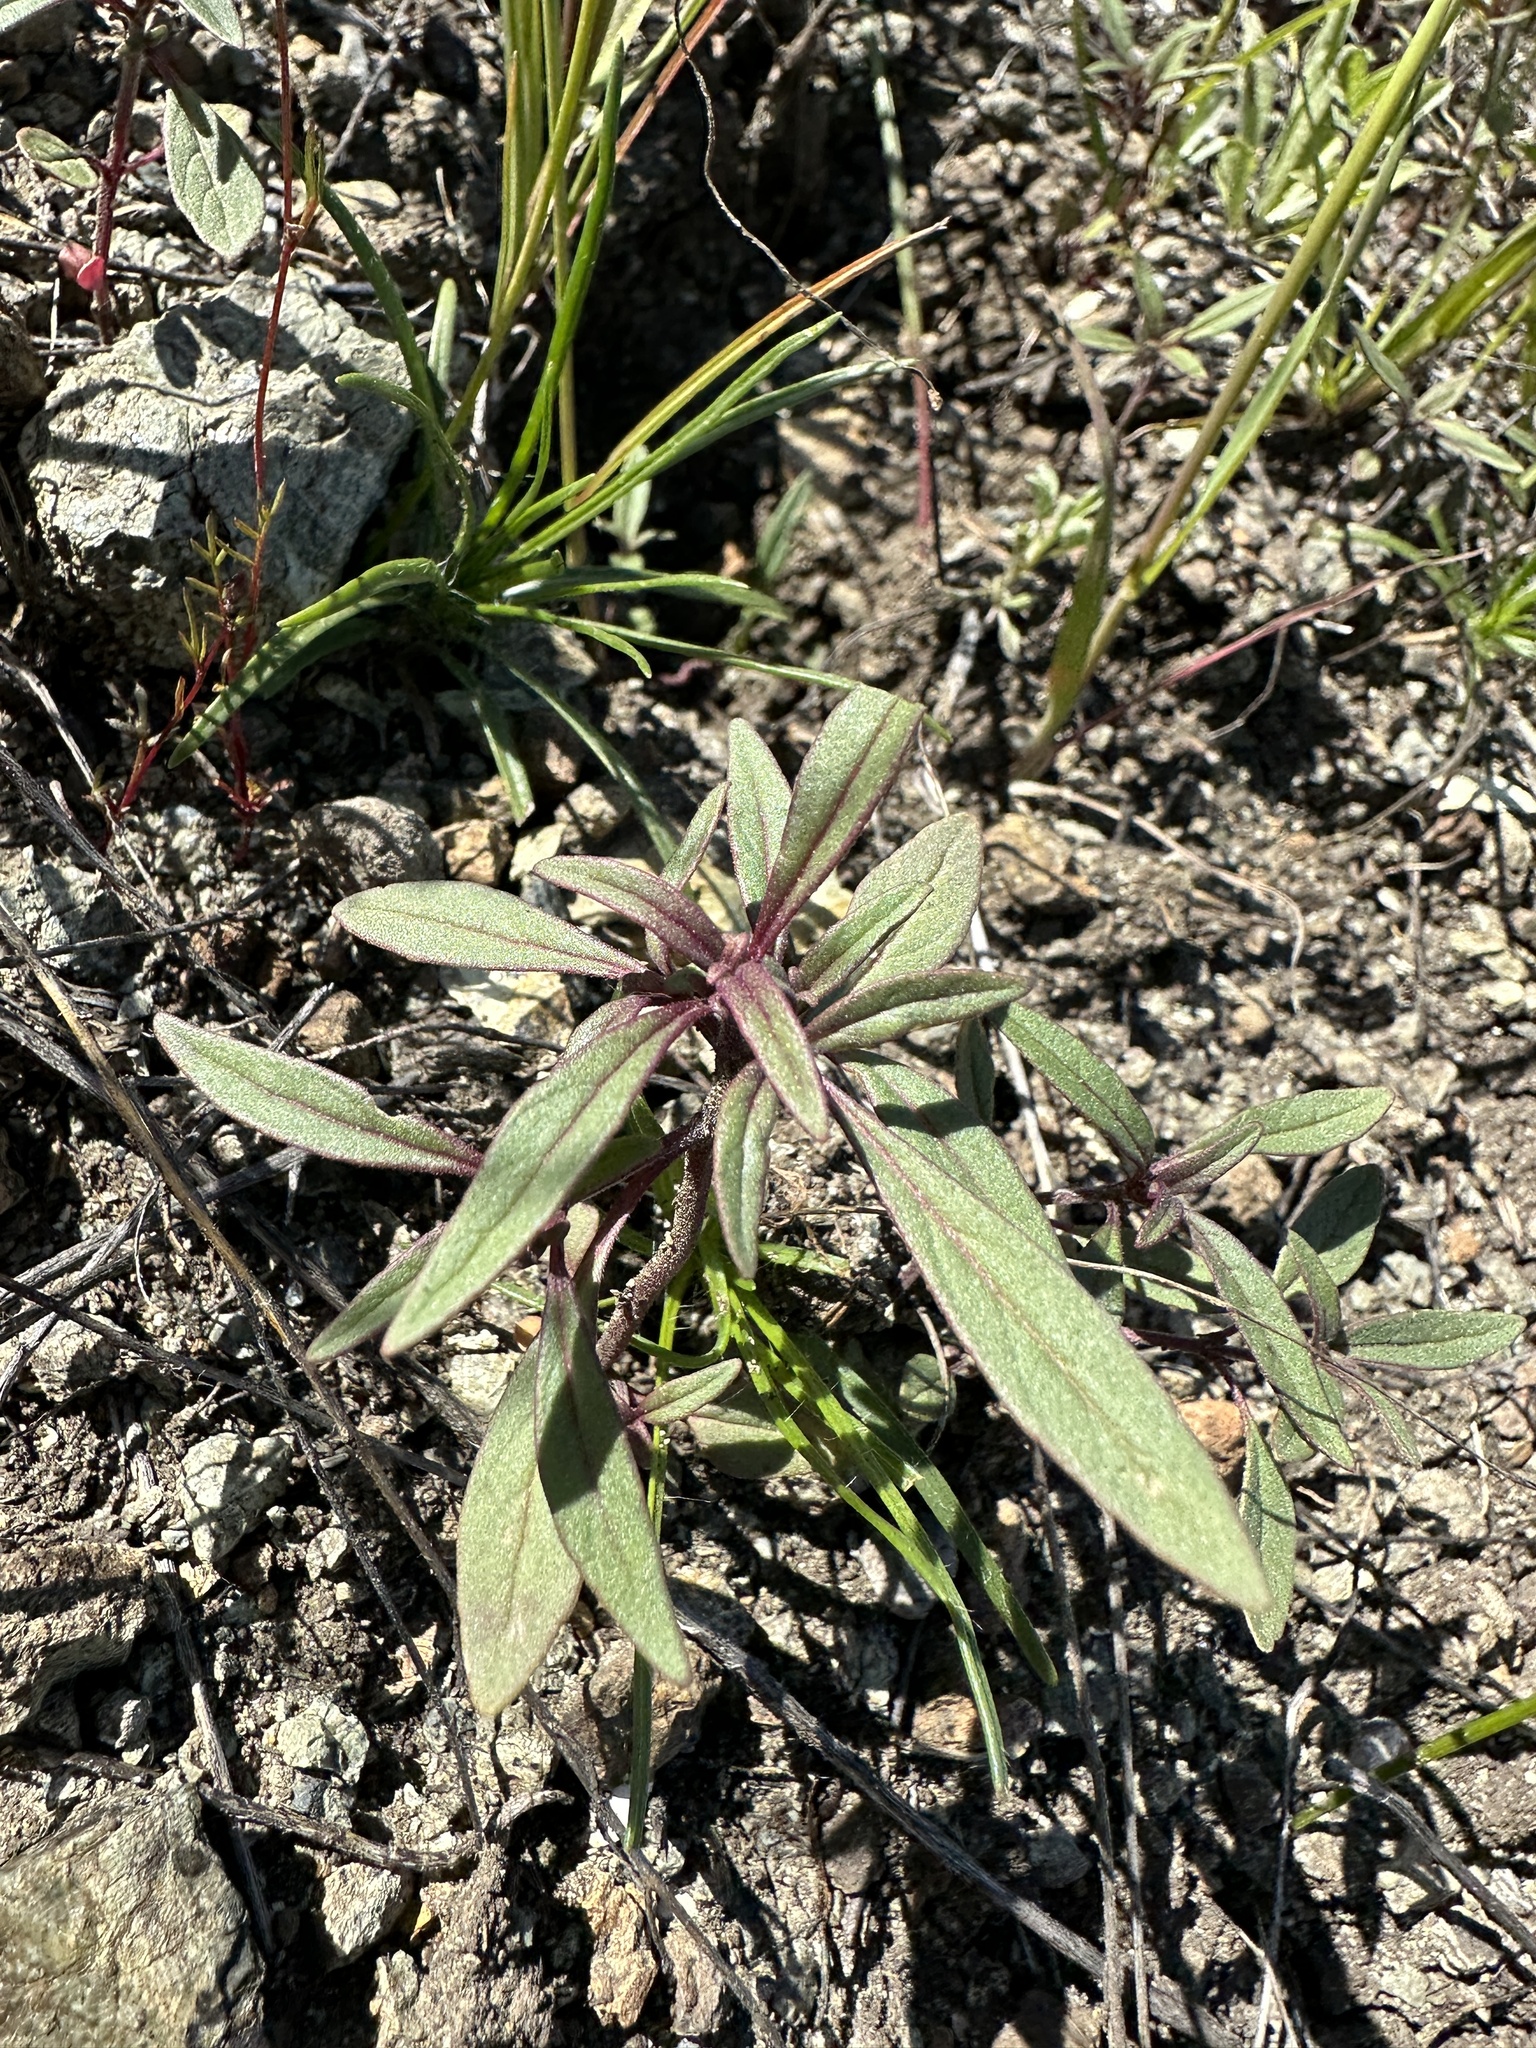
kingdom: Plantae
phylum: Tracheophyta
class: Magnoliopsida
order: Lamiales
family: Lamiaceae
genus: Monardella
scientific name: Monardella douglasii
